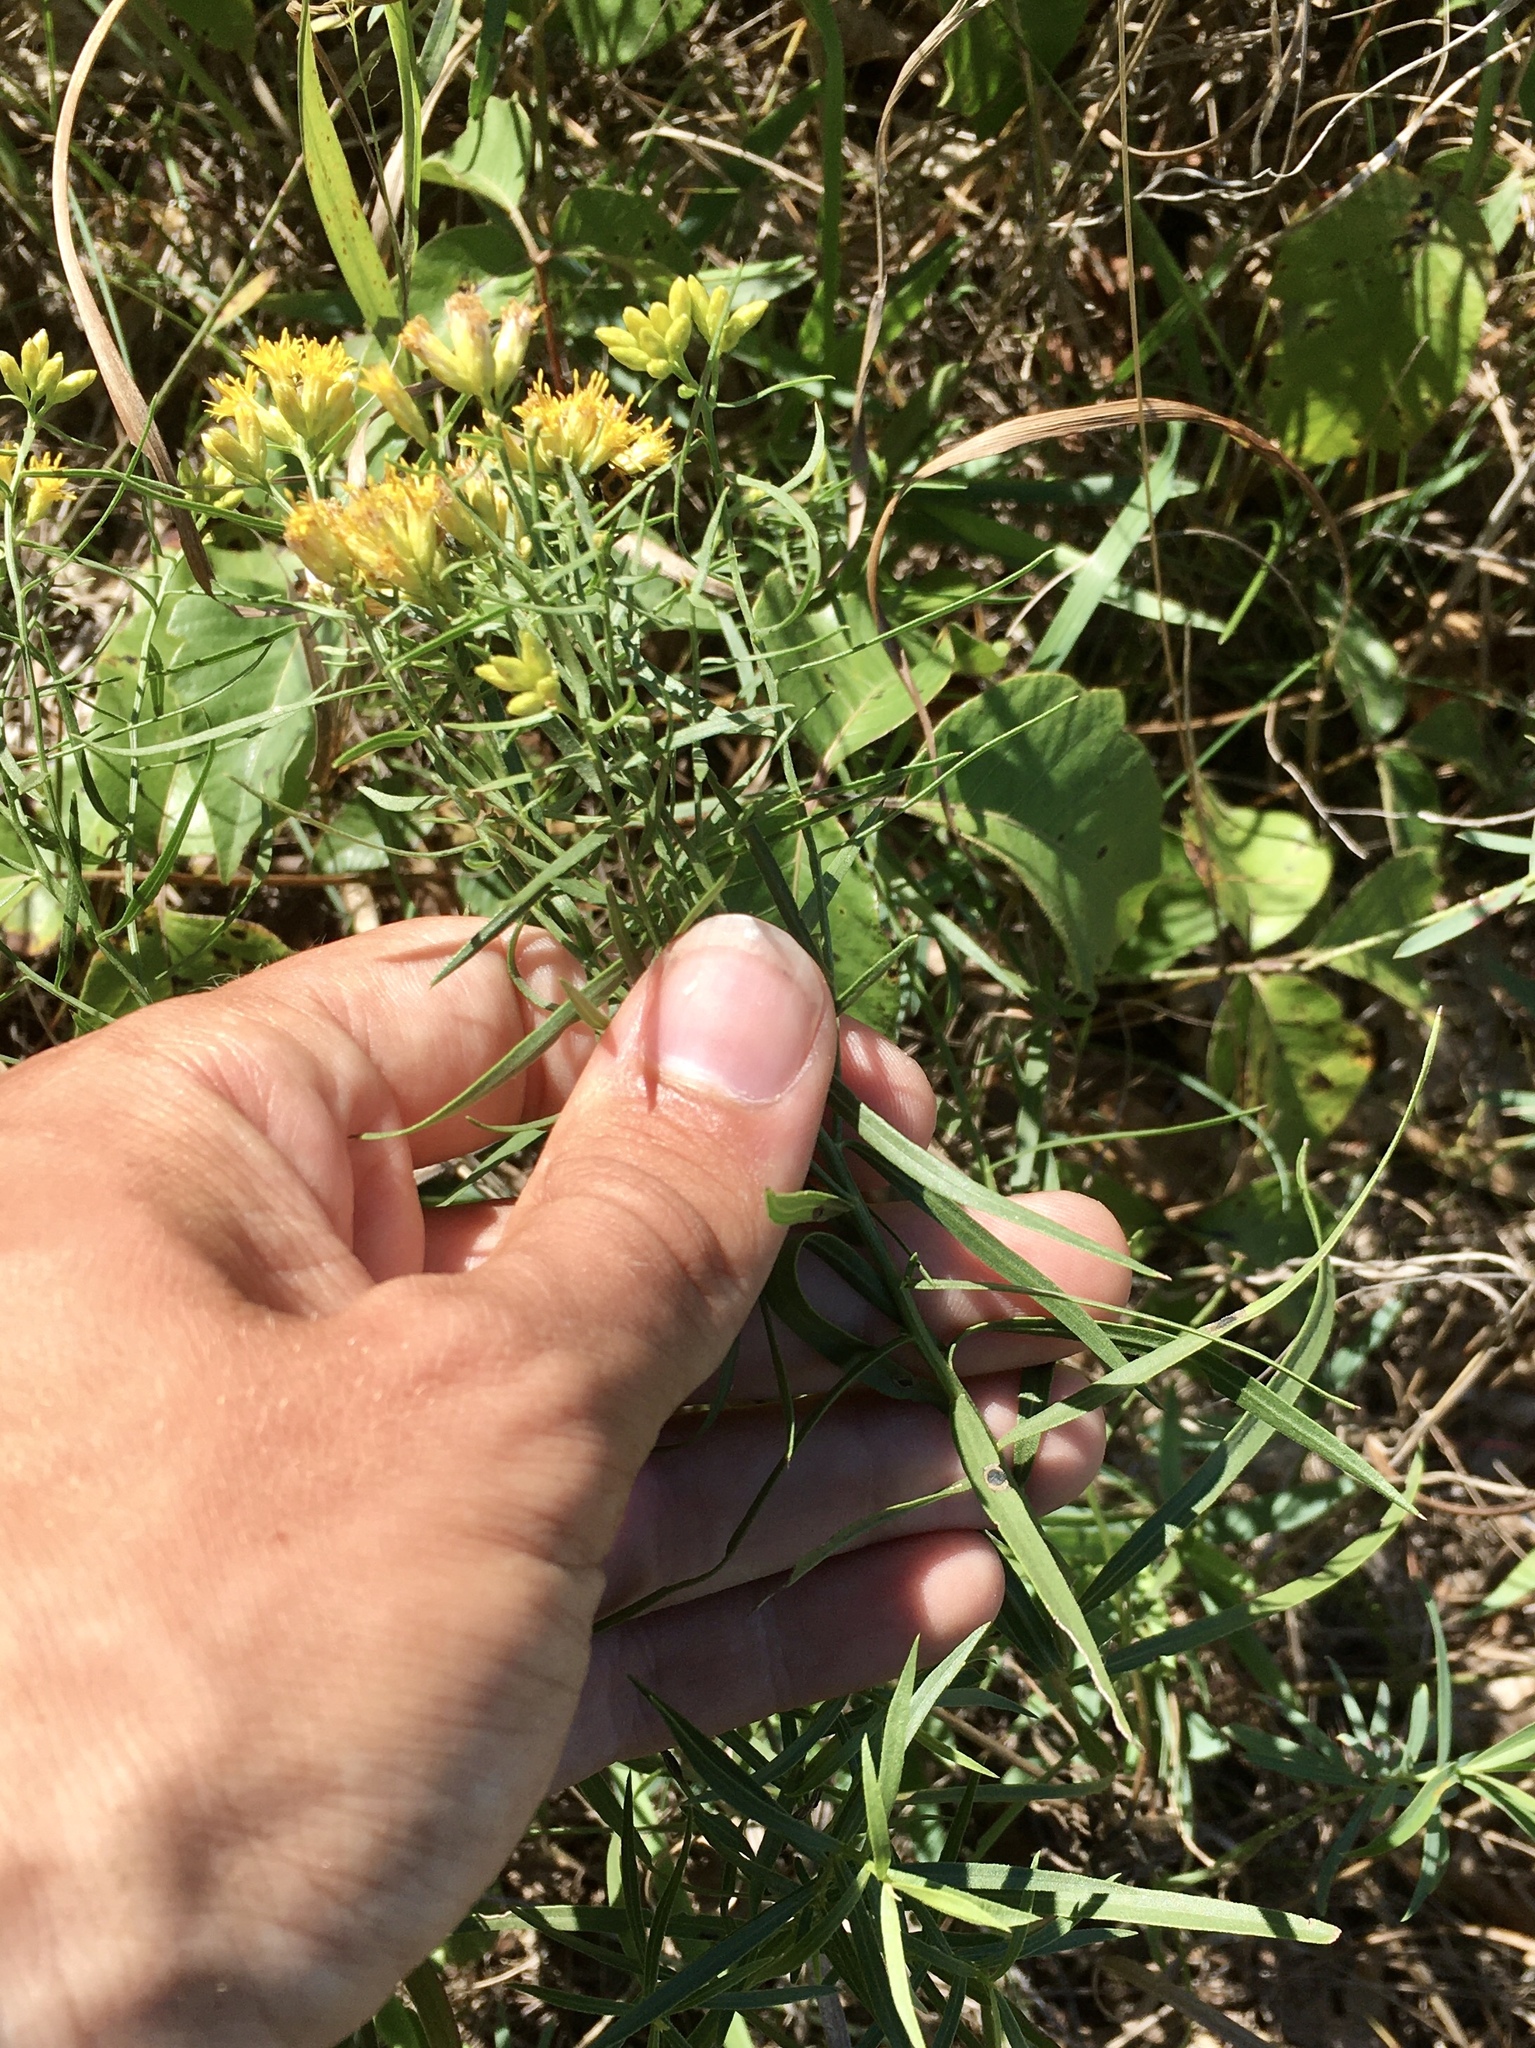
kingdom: Plantae
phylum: Tracheophyta
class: Magnoliopsida
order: Asterales
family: Asteraceae
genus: Euthamia
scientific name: Euthamia gymnospermoides
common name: Great plains goldentop
